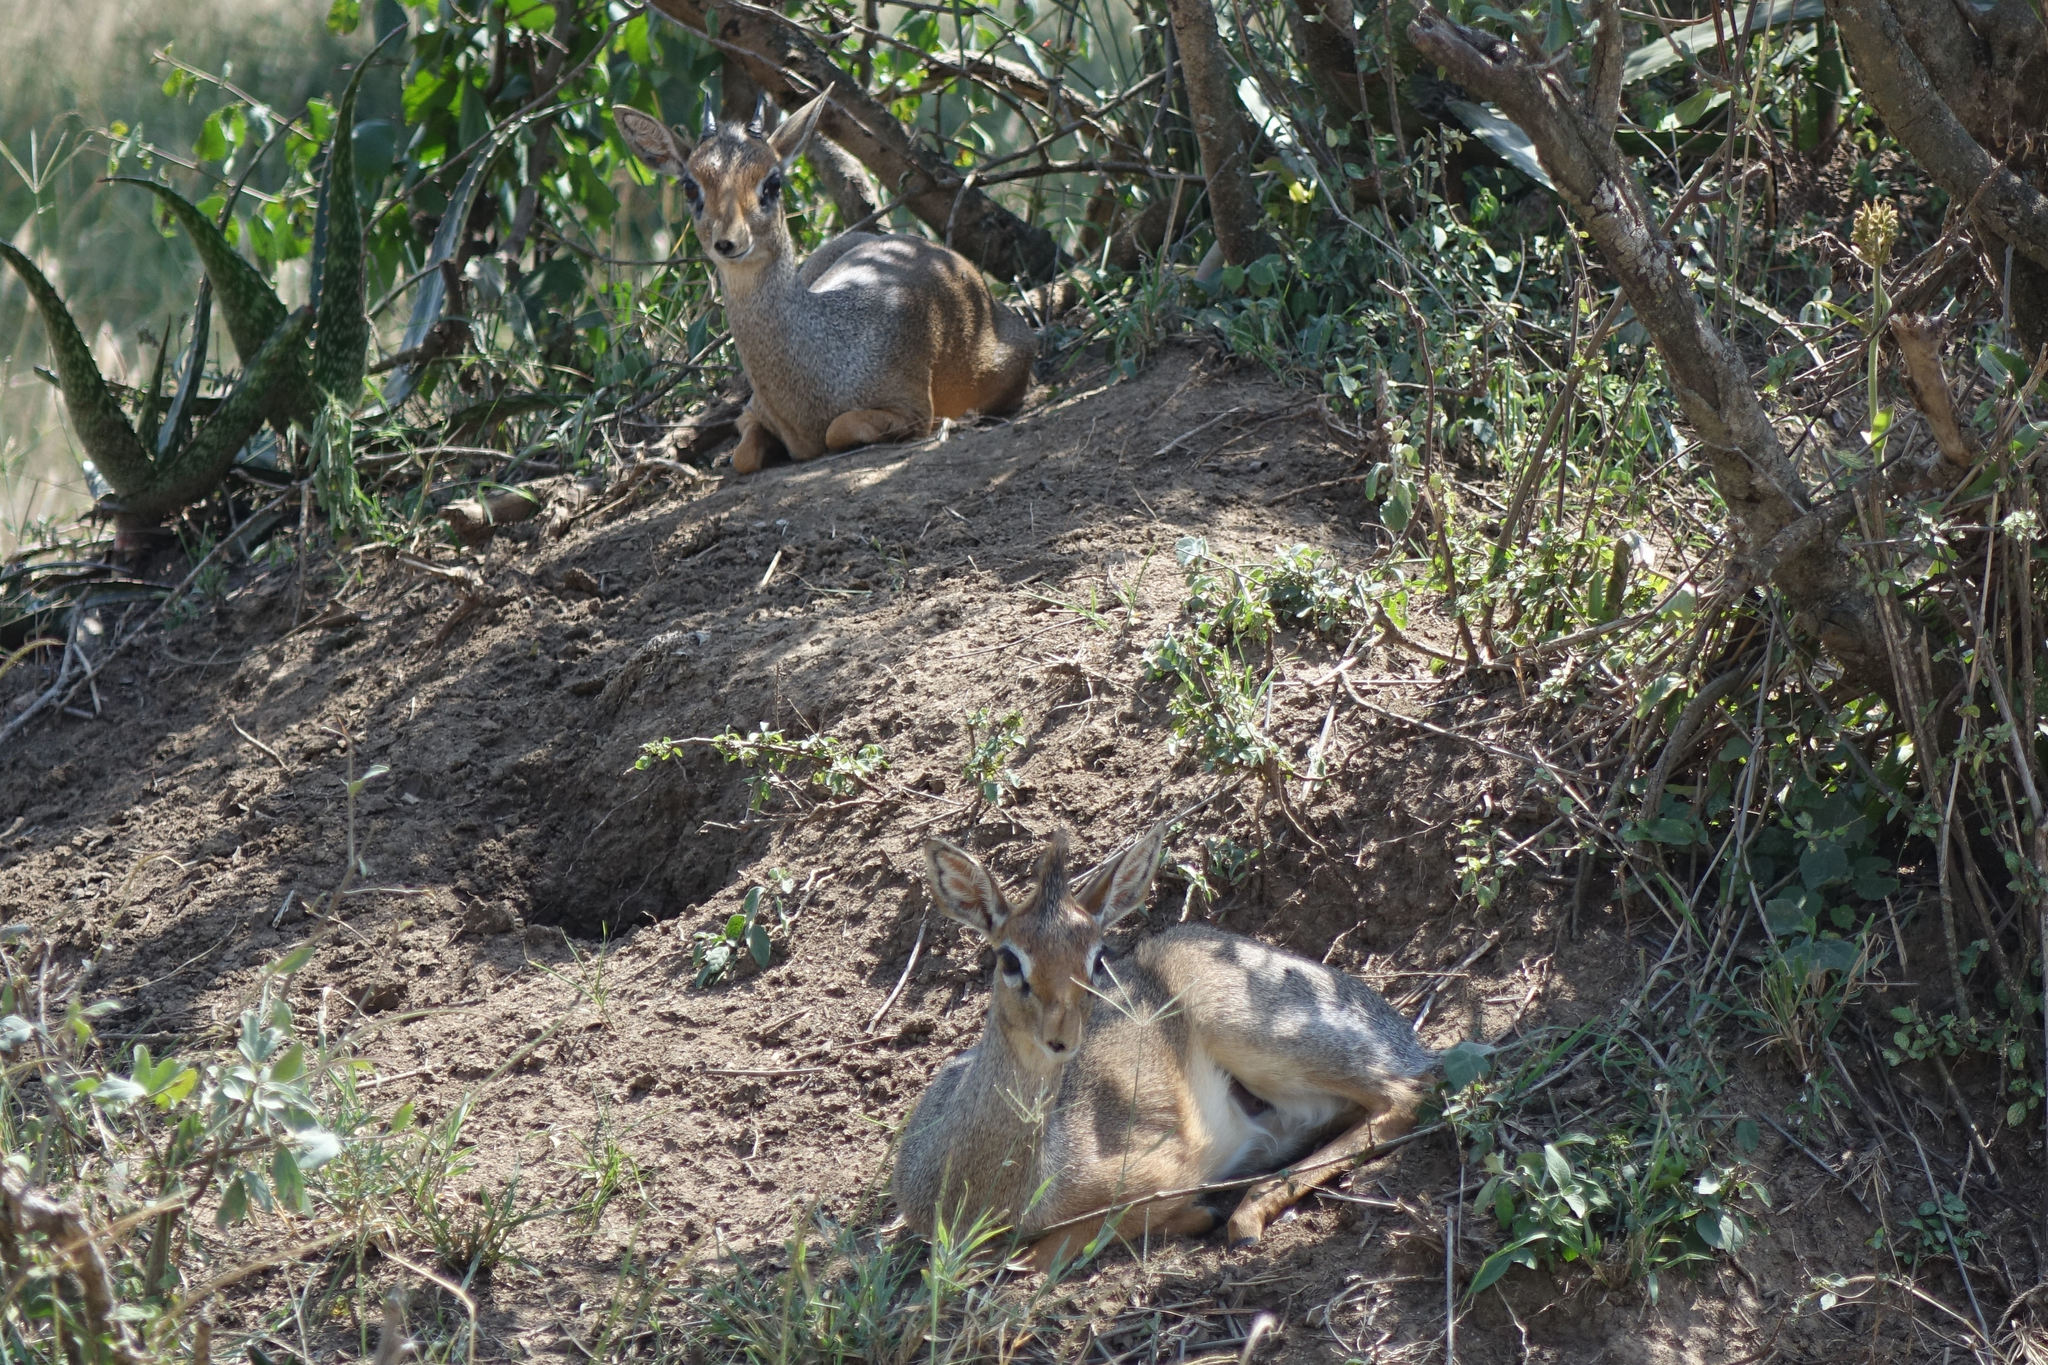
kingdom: Animalia
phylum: Chordata
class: Mammalia
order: Artiodactyla
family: Bovidae
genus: Madoqua
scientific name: Madoqua
